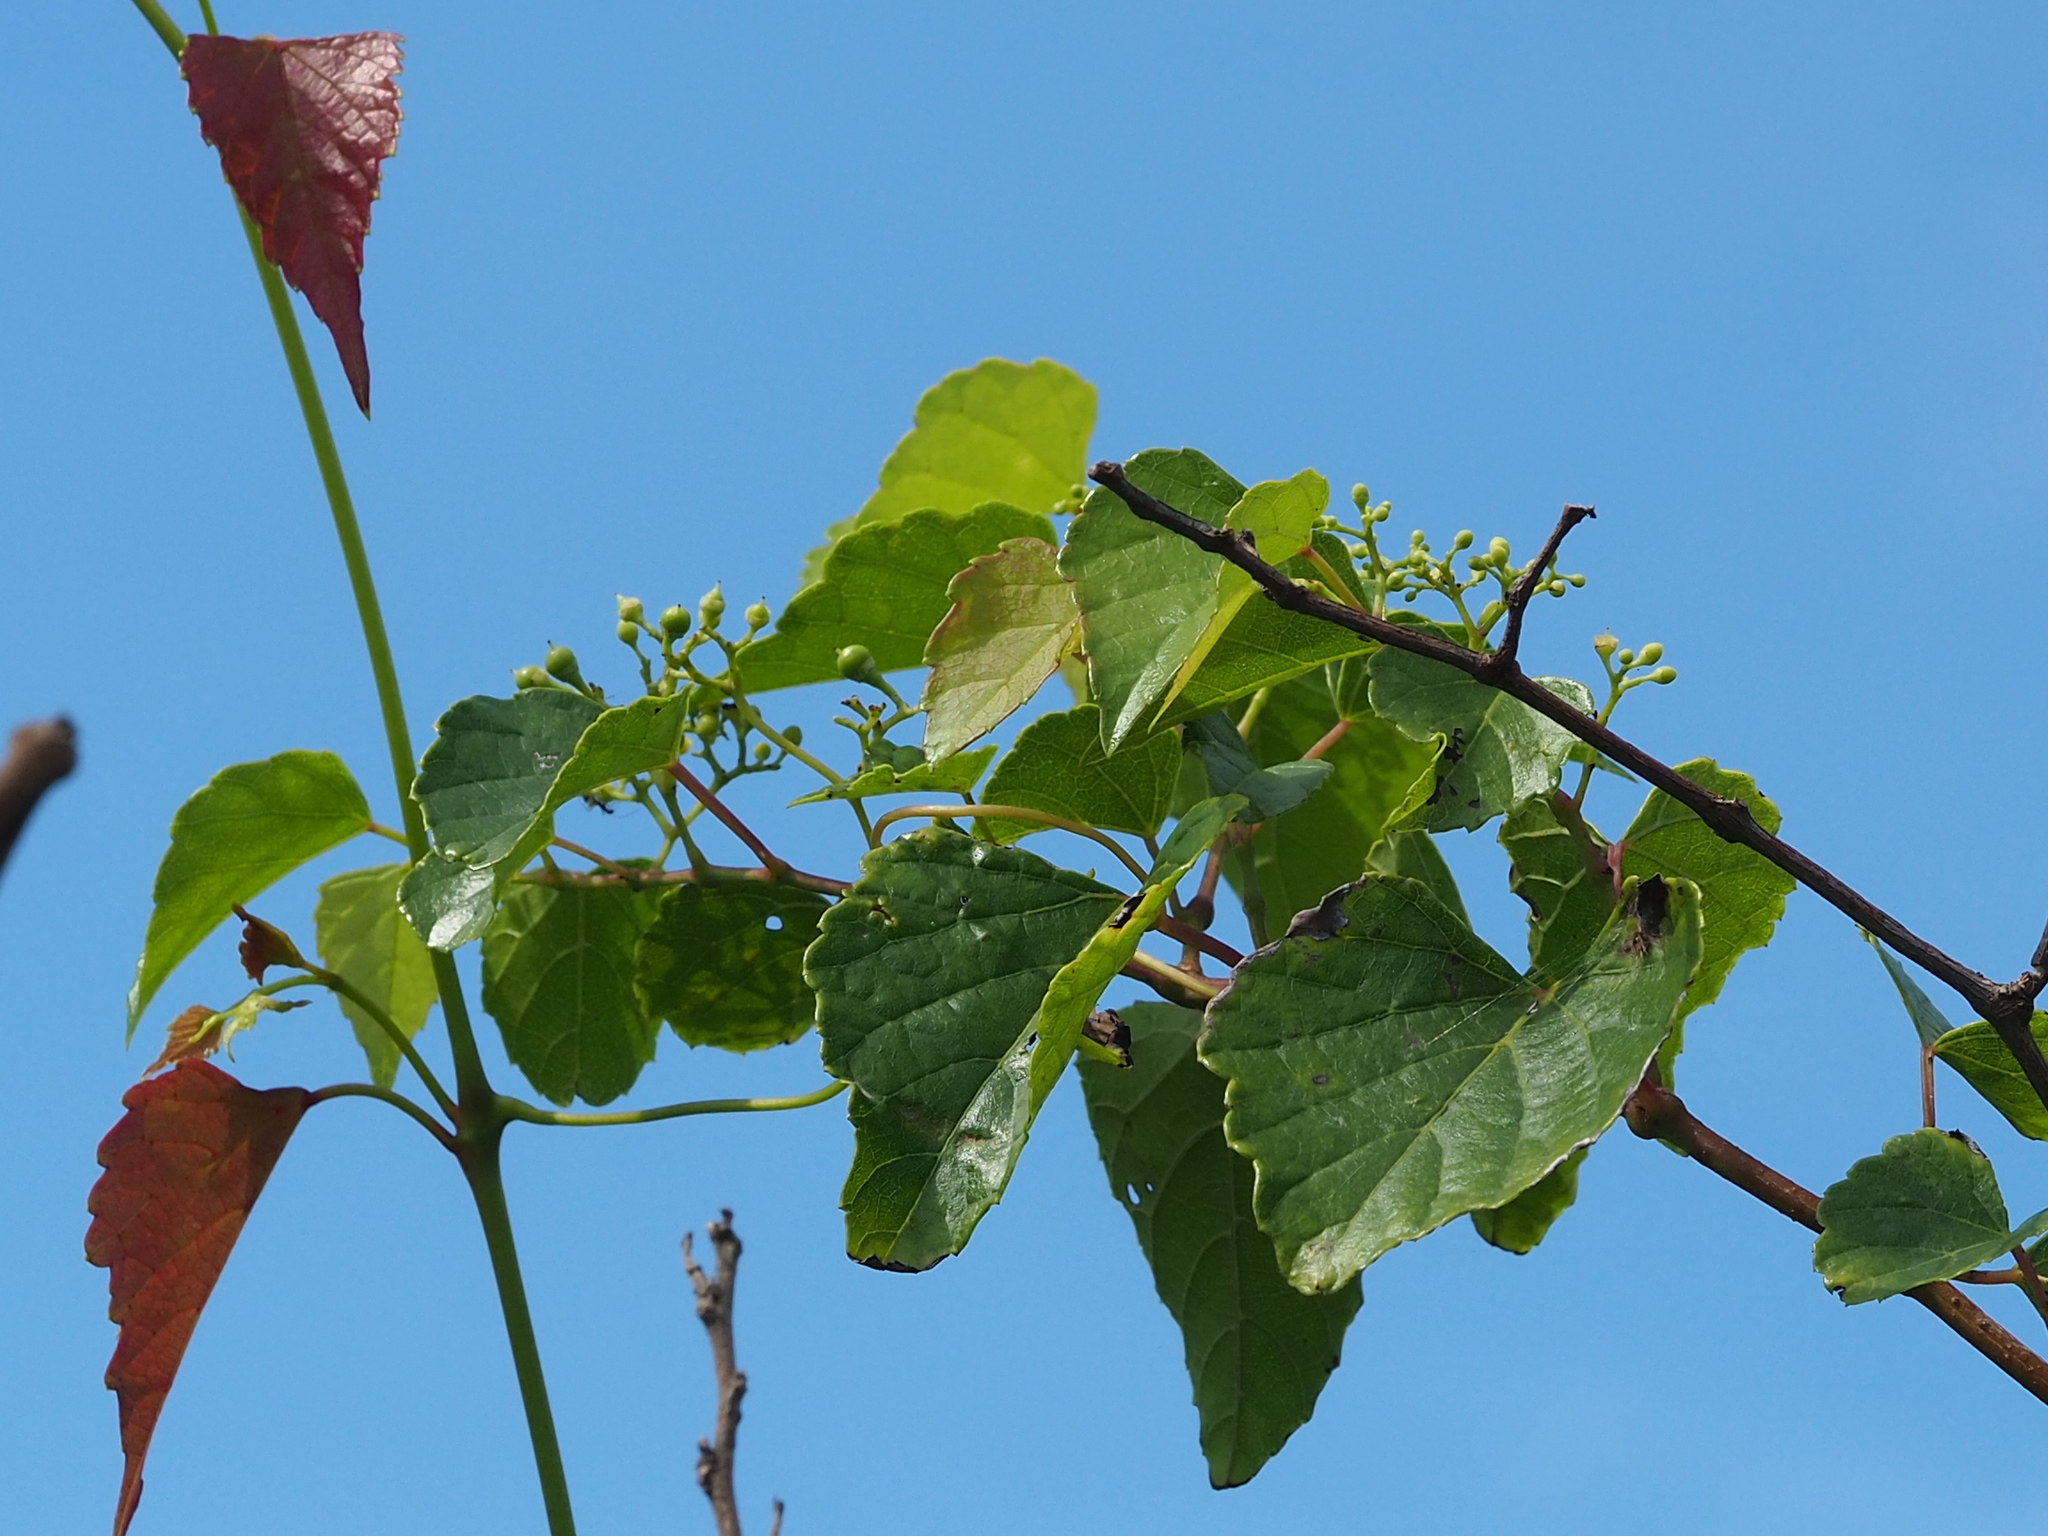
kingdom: Plantae
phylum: Tracheophyta
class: Magnoliopsida
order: Vitales
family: Vitaceae
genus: Ampelopsis
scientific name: Ampelopsis glandulosa
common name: Amur peppervine
